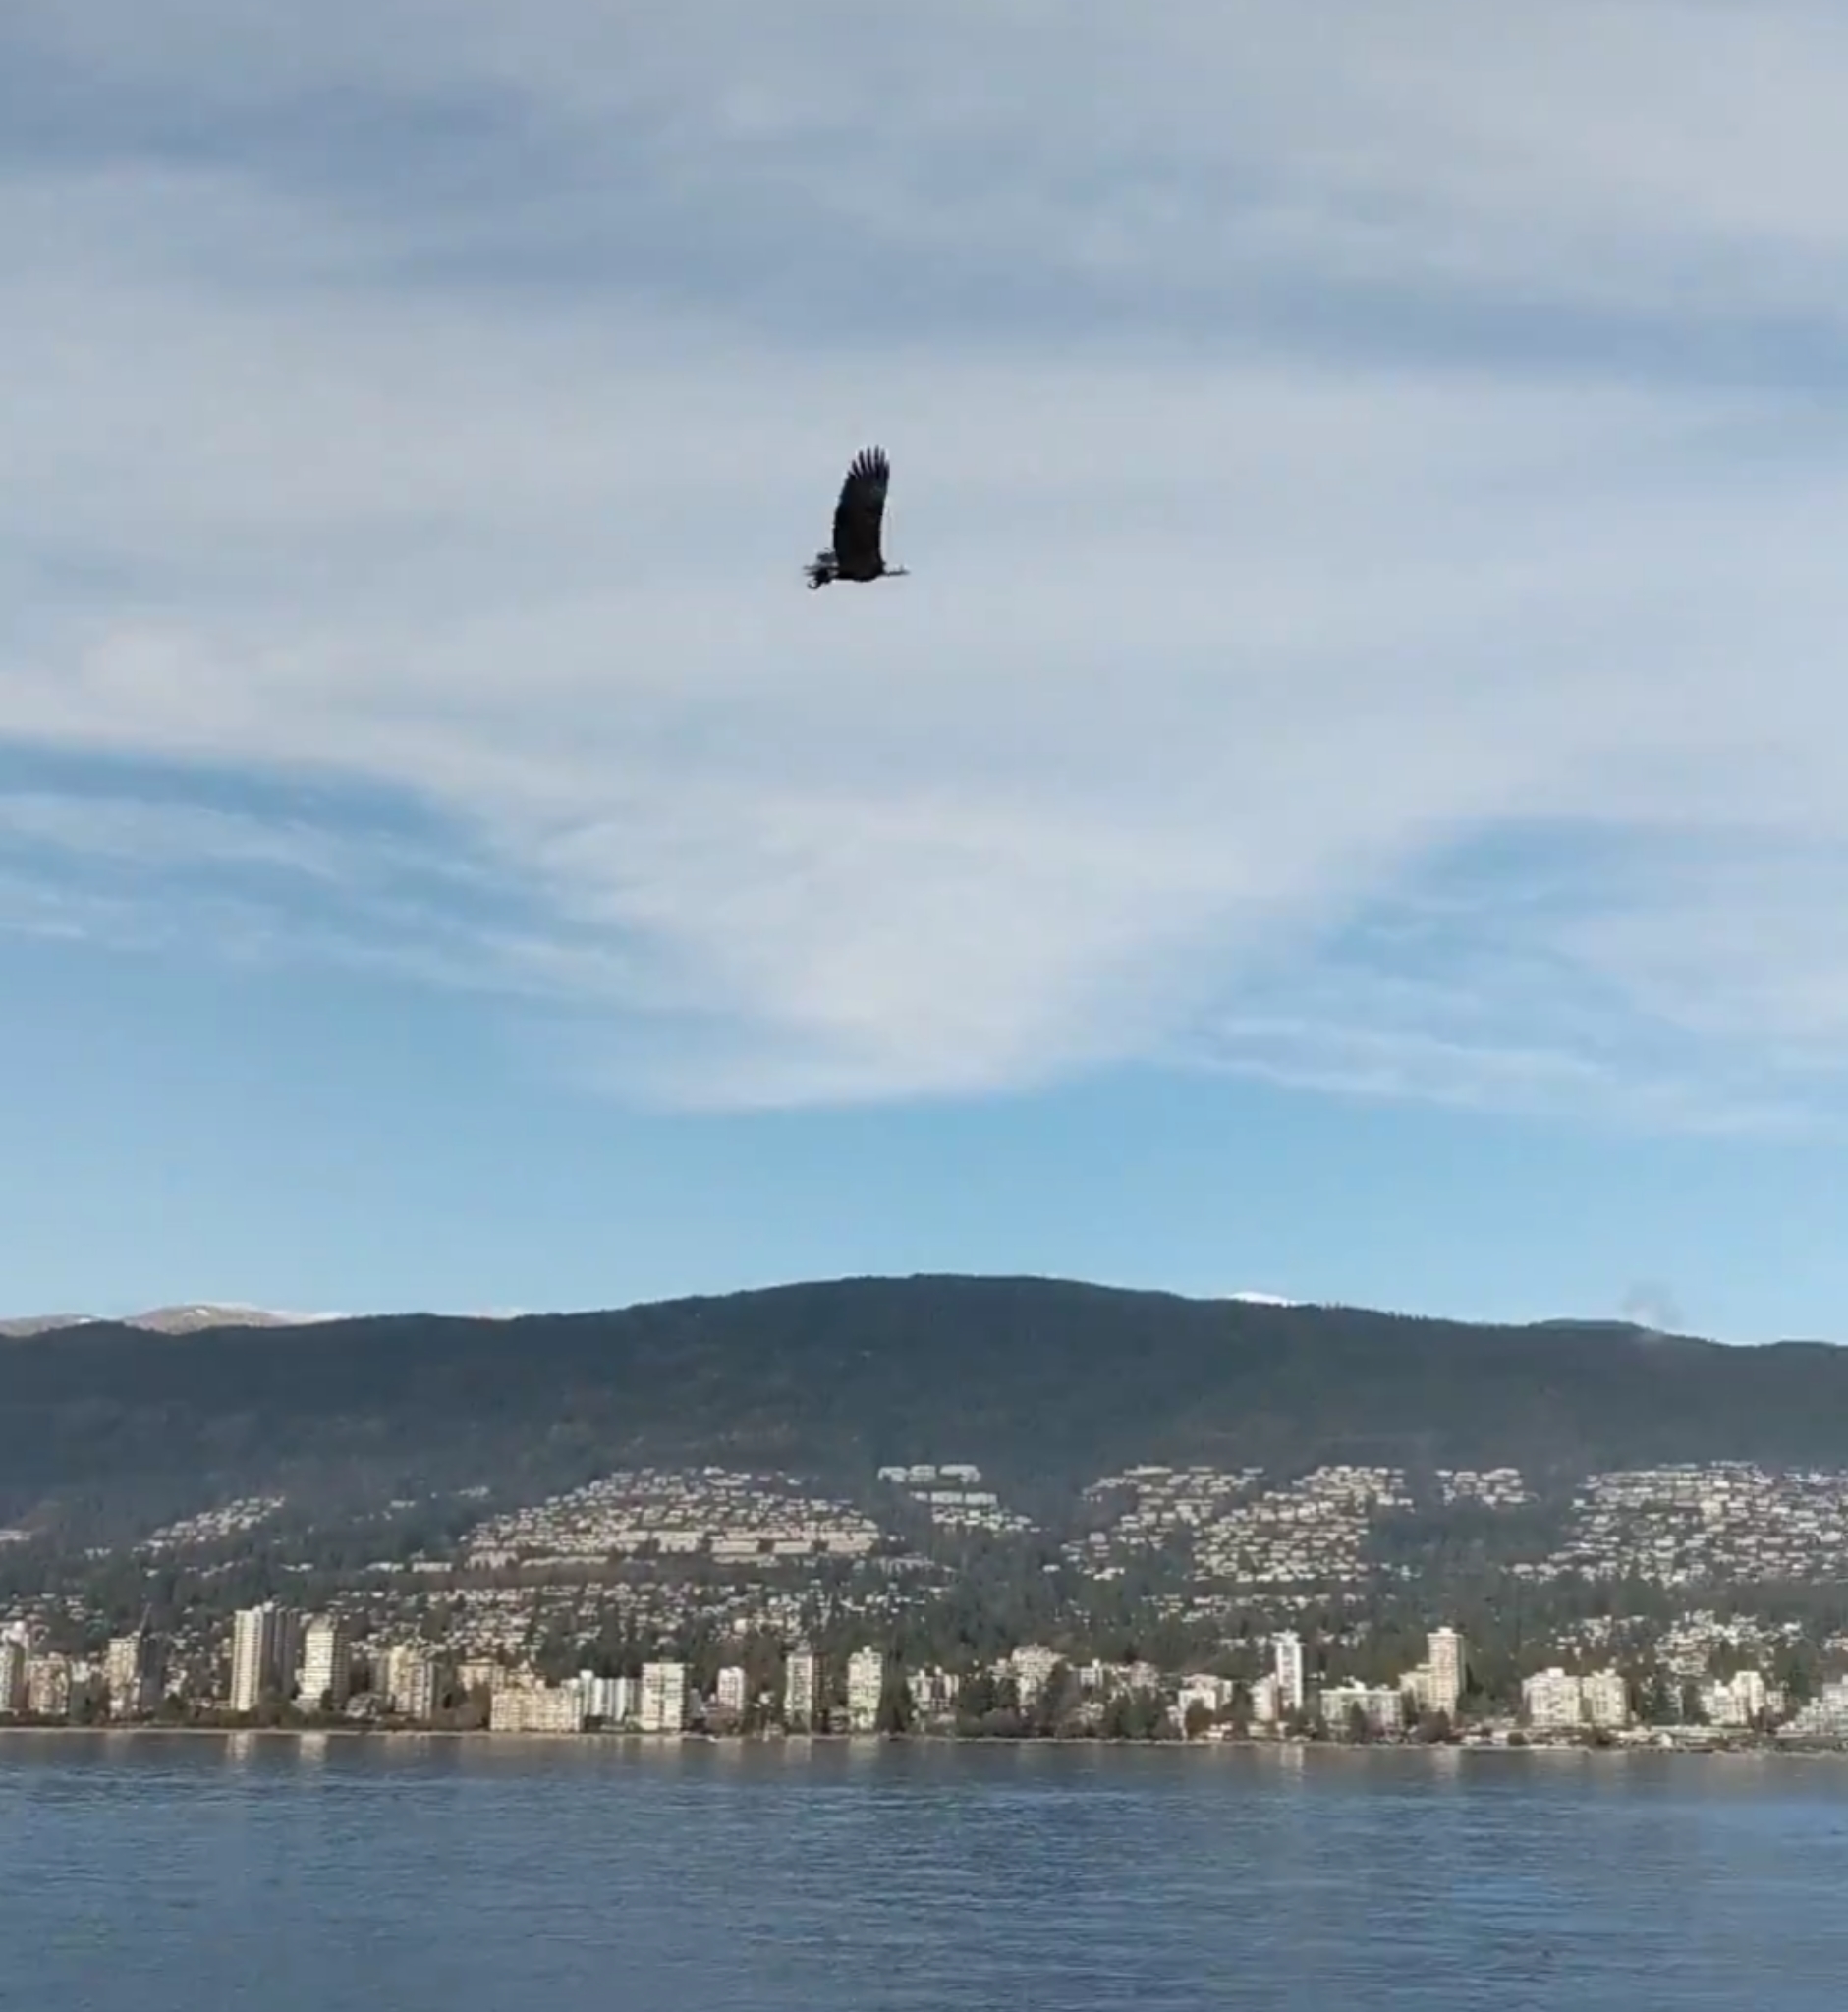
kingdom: Animalia
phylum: Chordata
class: Aves
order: Accipitriformes
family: Accipitridae
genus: Haliaeetus
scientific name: Haliaeetus leucocephalus
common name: Bald eagle
